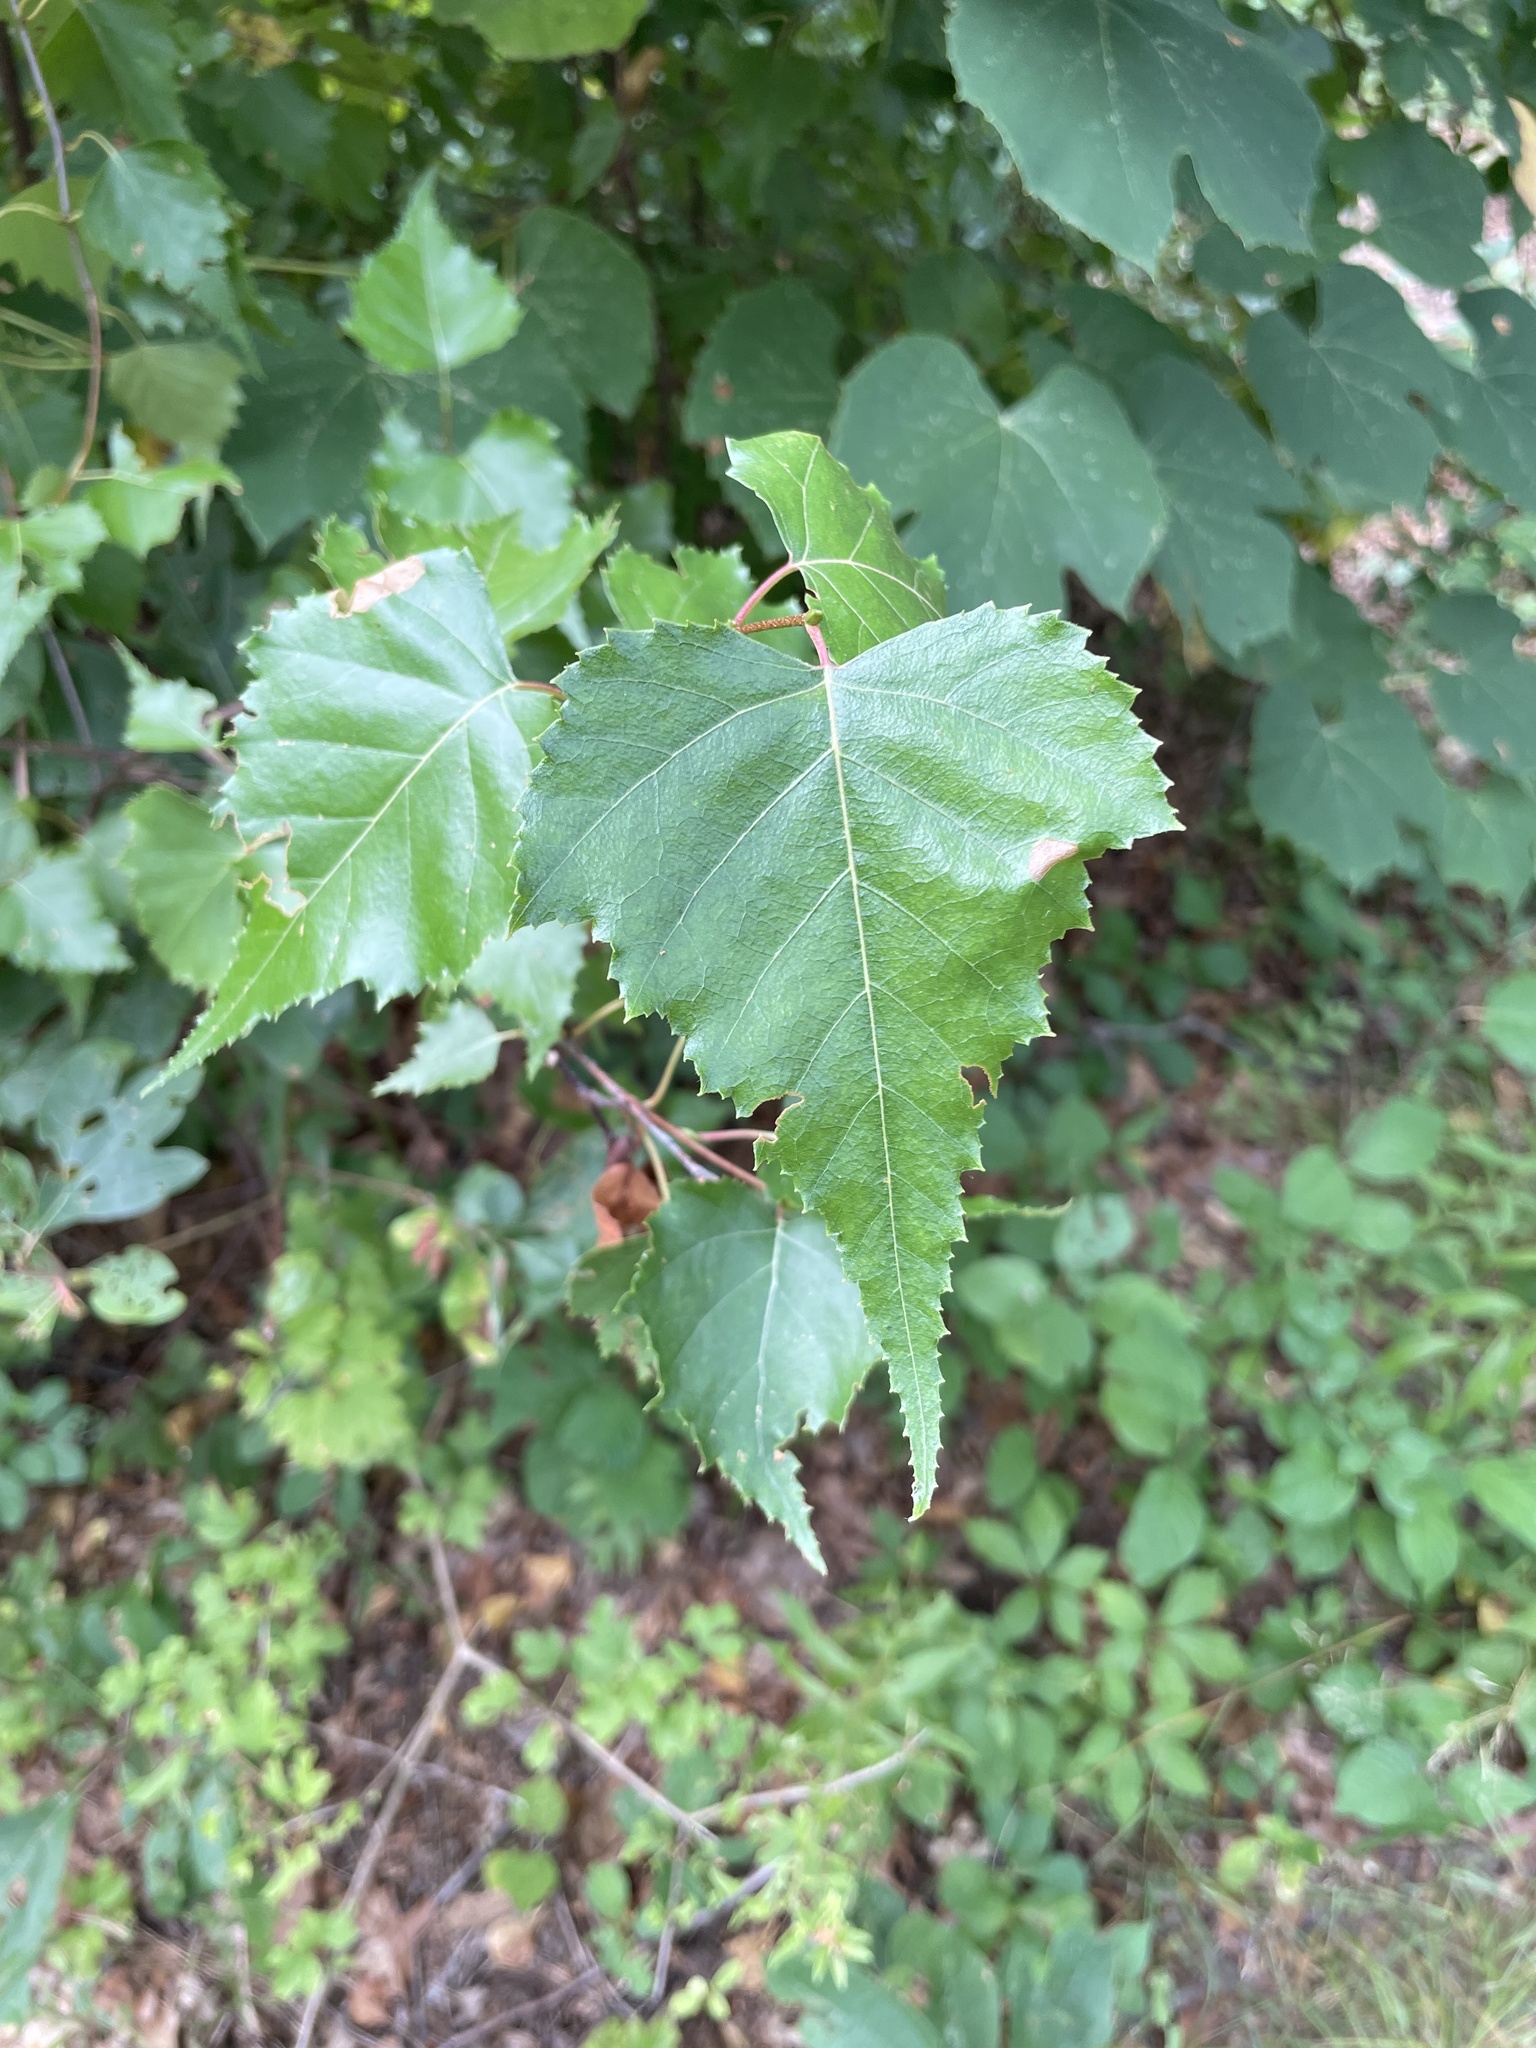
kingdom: Plantae
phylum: Tracheophyta
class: Magnoliopsida
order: Fagales
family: Betulaceae
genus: Betula
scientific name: Betula populifolia
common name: Fire birch
